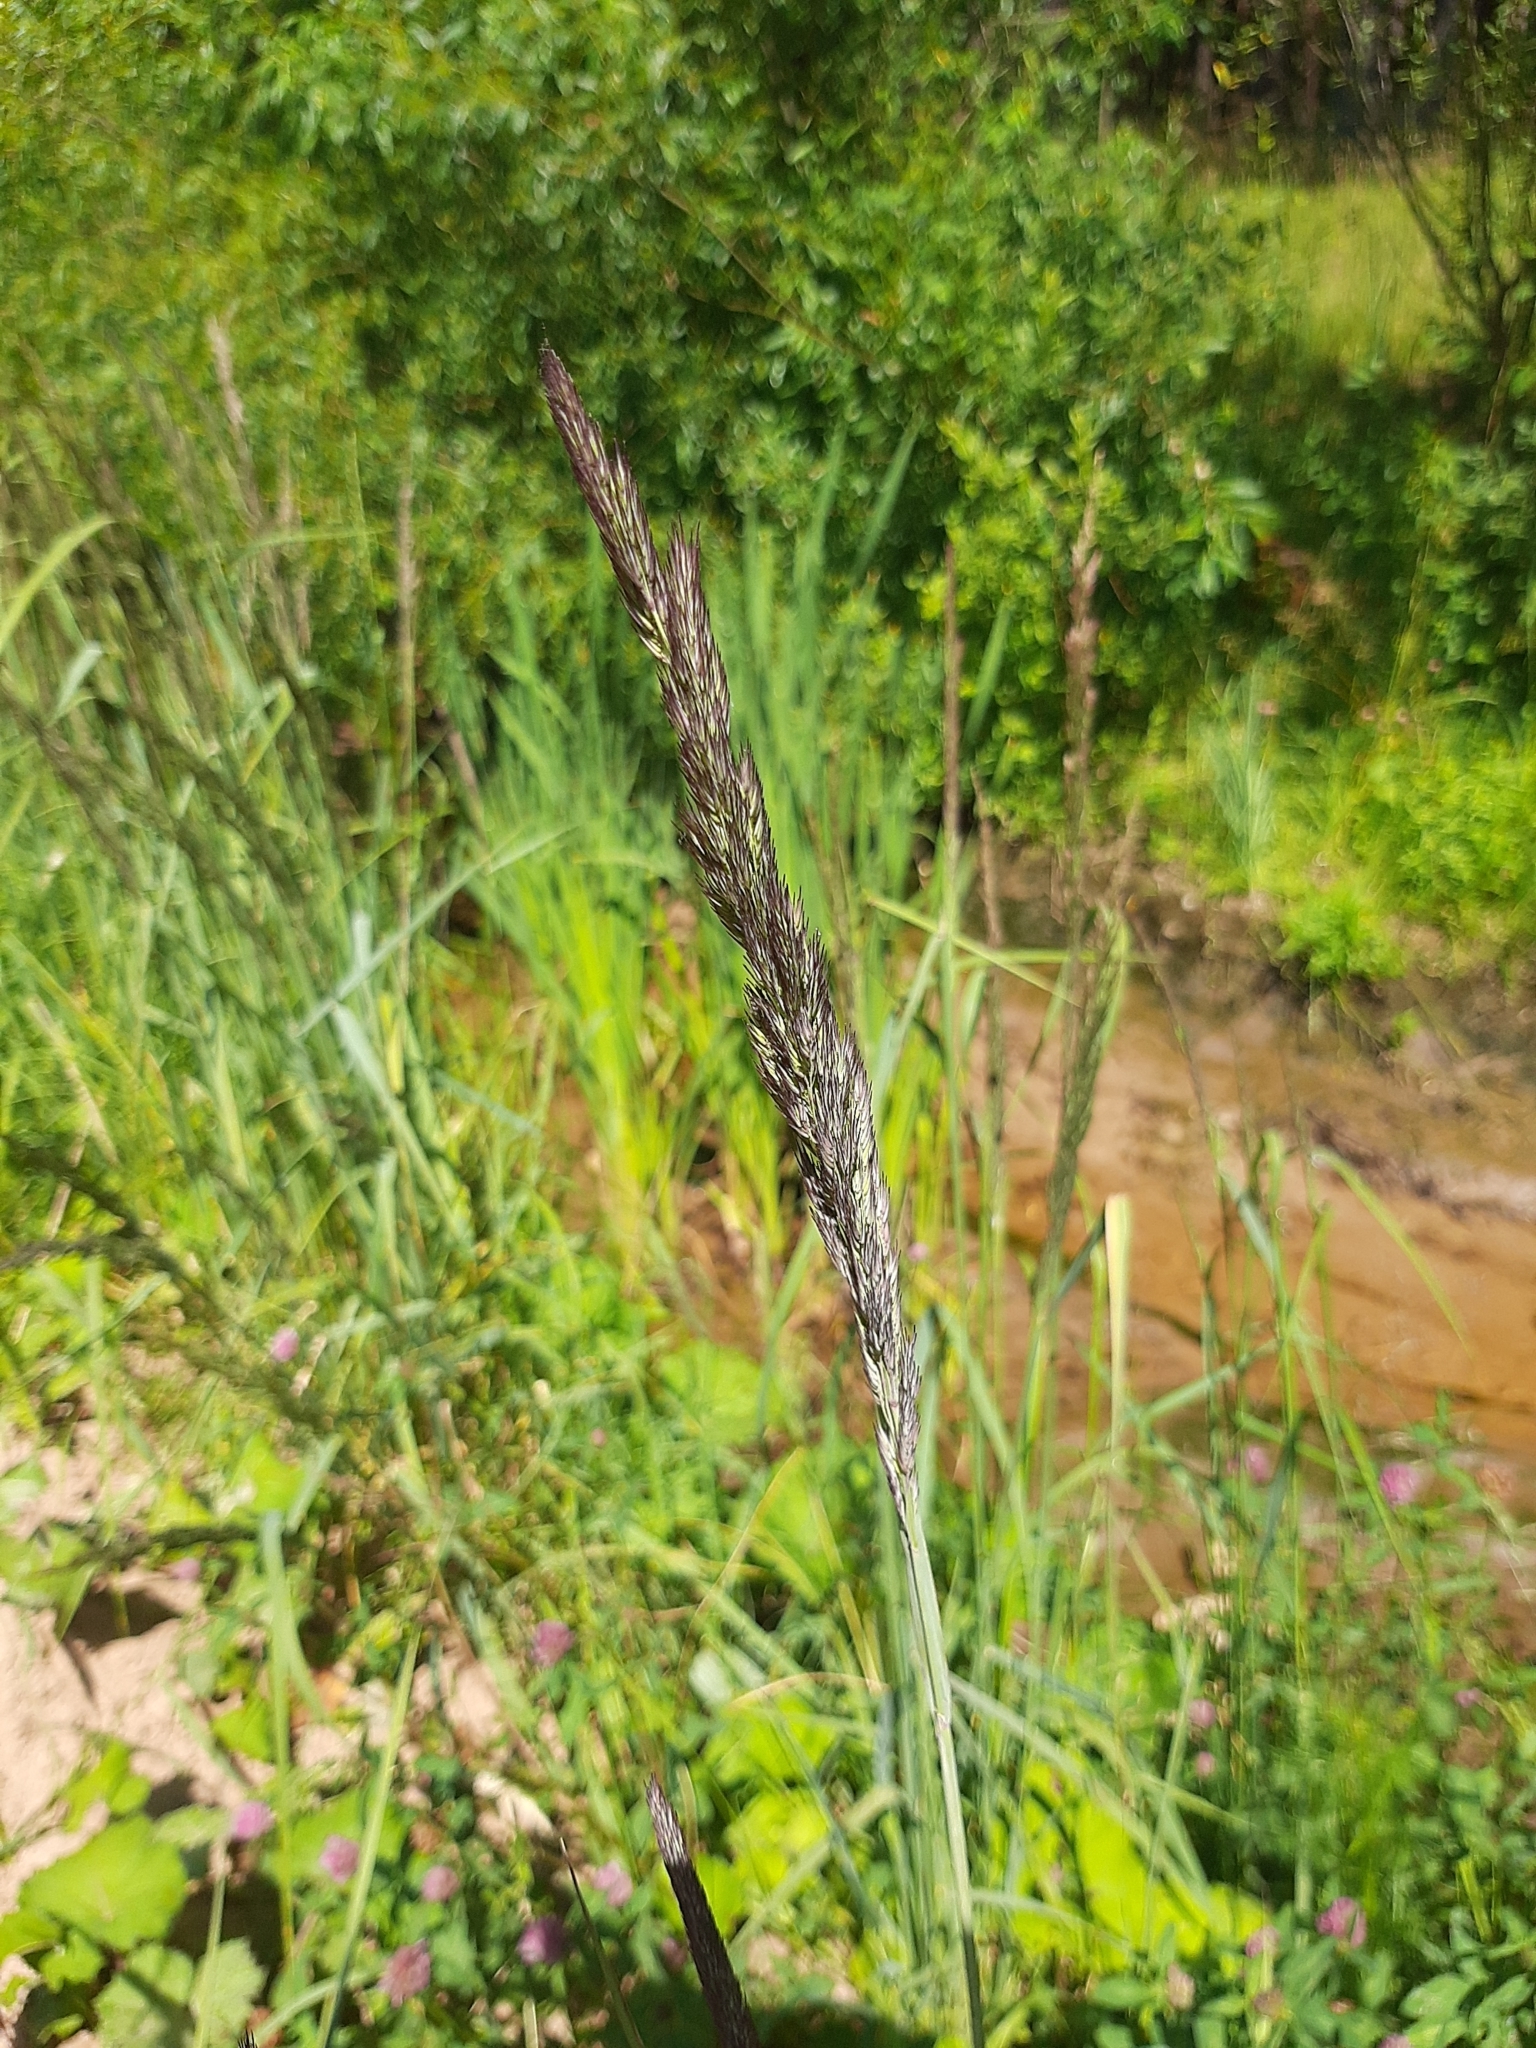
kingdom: Plantae
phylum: Tracheophyta
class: Liliopsida
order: Poales
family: Poaceae
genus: Calamagrostis
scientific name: Calamagrostis epigejos
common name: Wood small-reed
